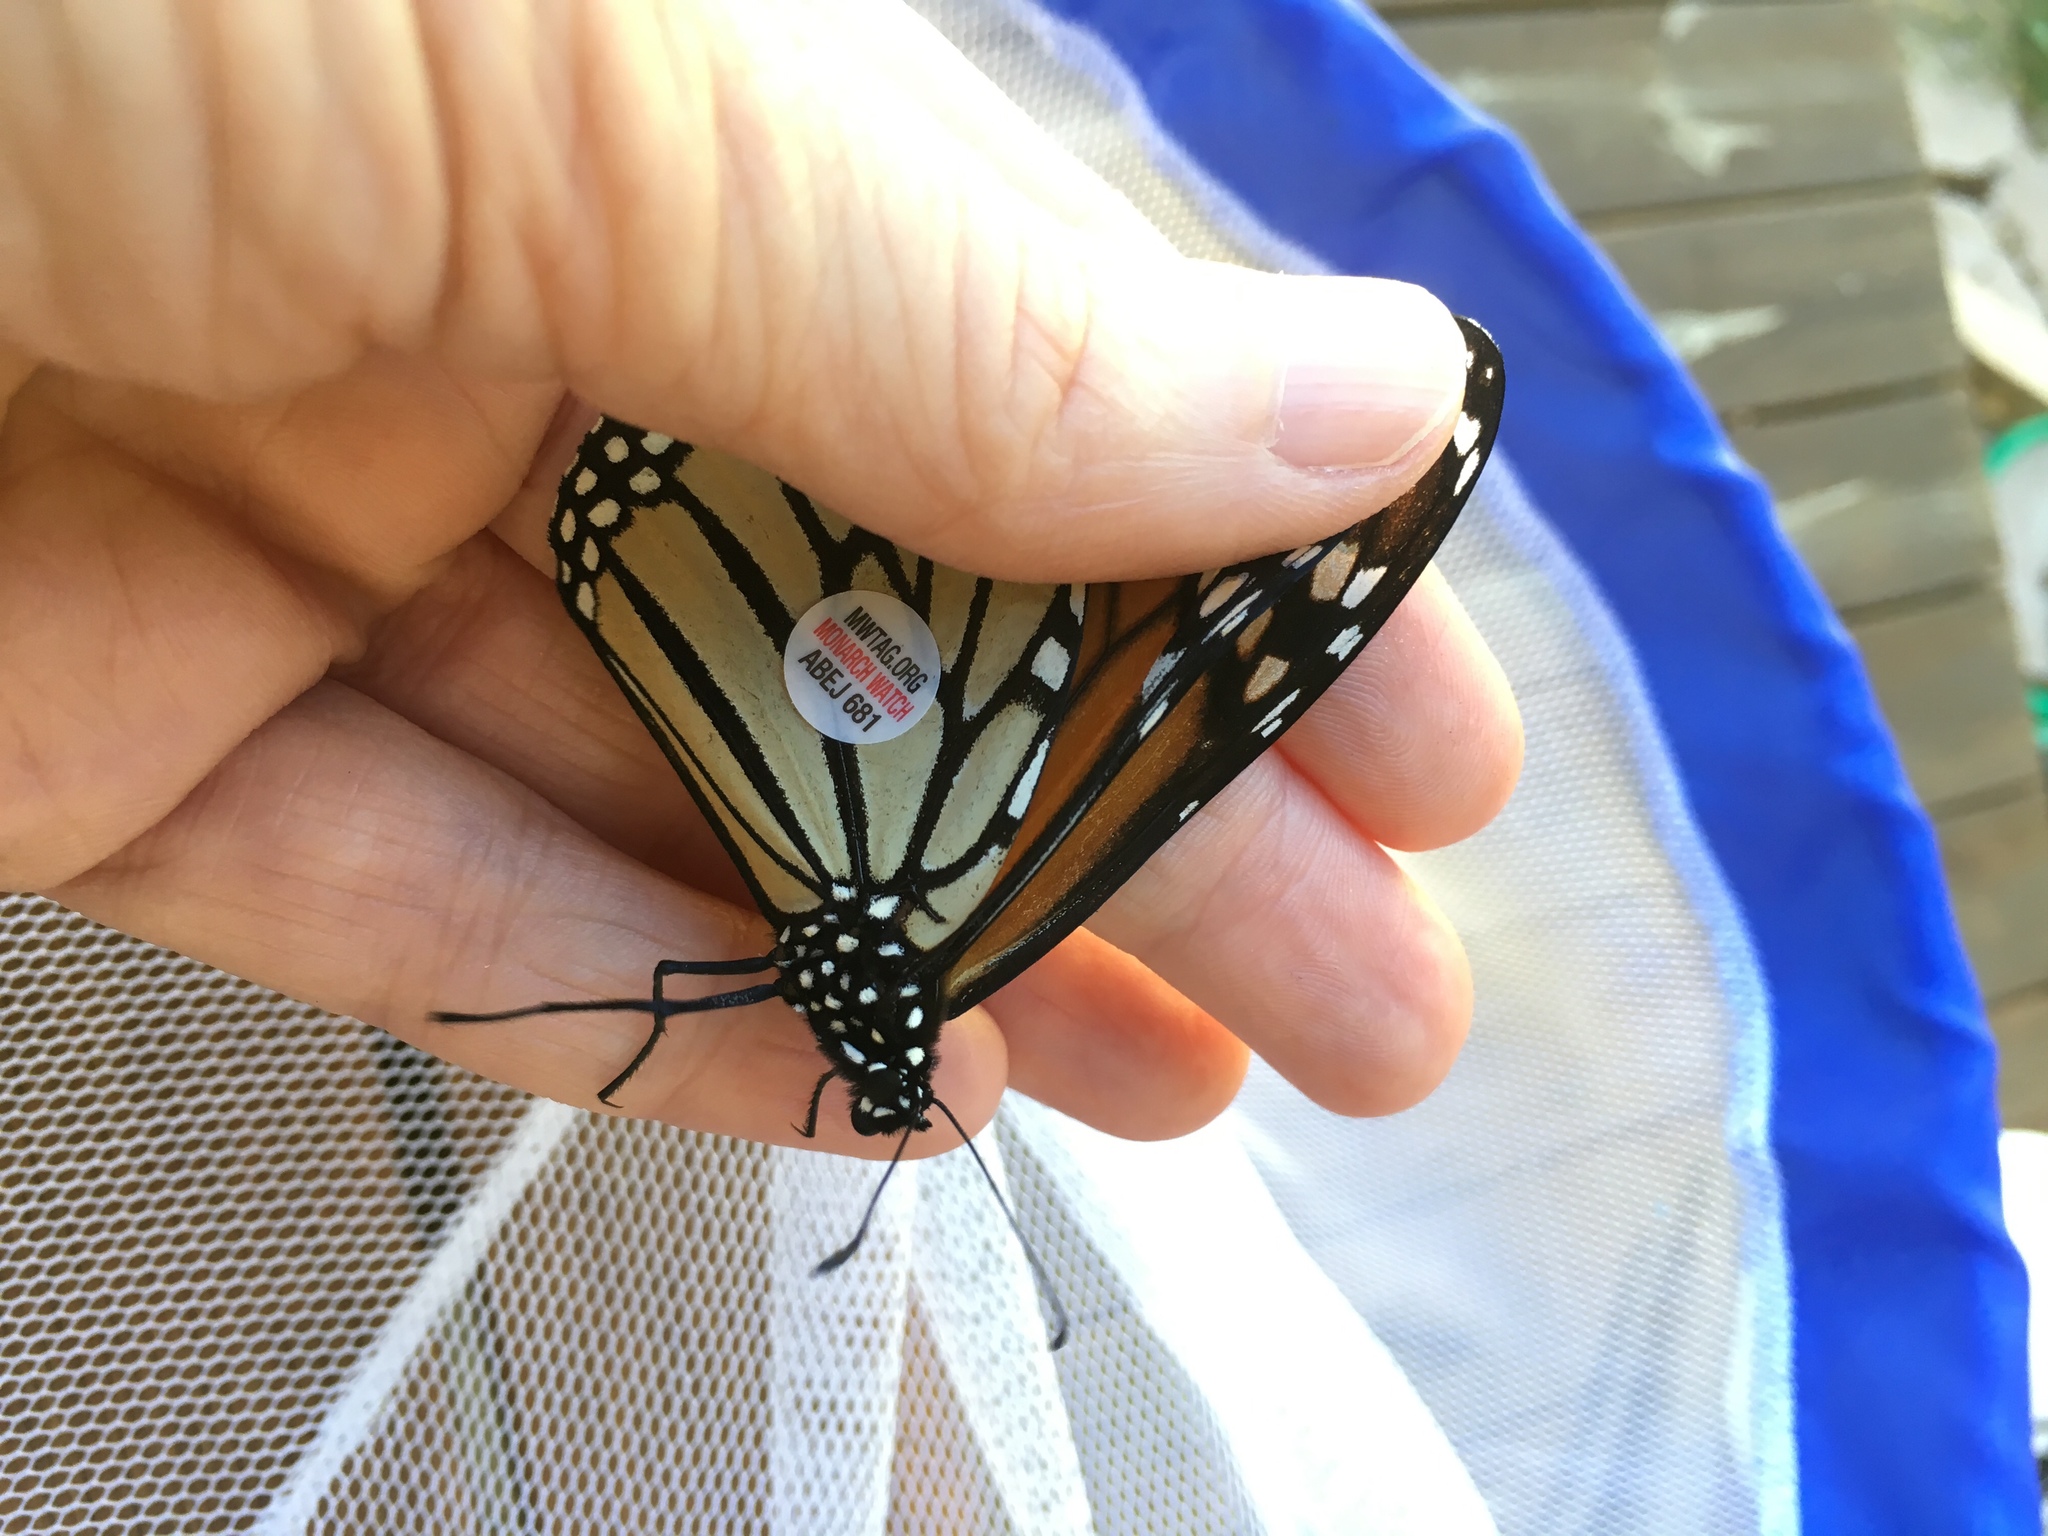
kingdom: Animalia
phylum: Arthropoda
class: Insecta
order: Lepidoptera
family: Nymphalidae
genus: Danaus
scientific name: Danaus plexippus
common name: Monarch
